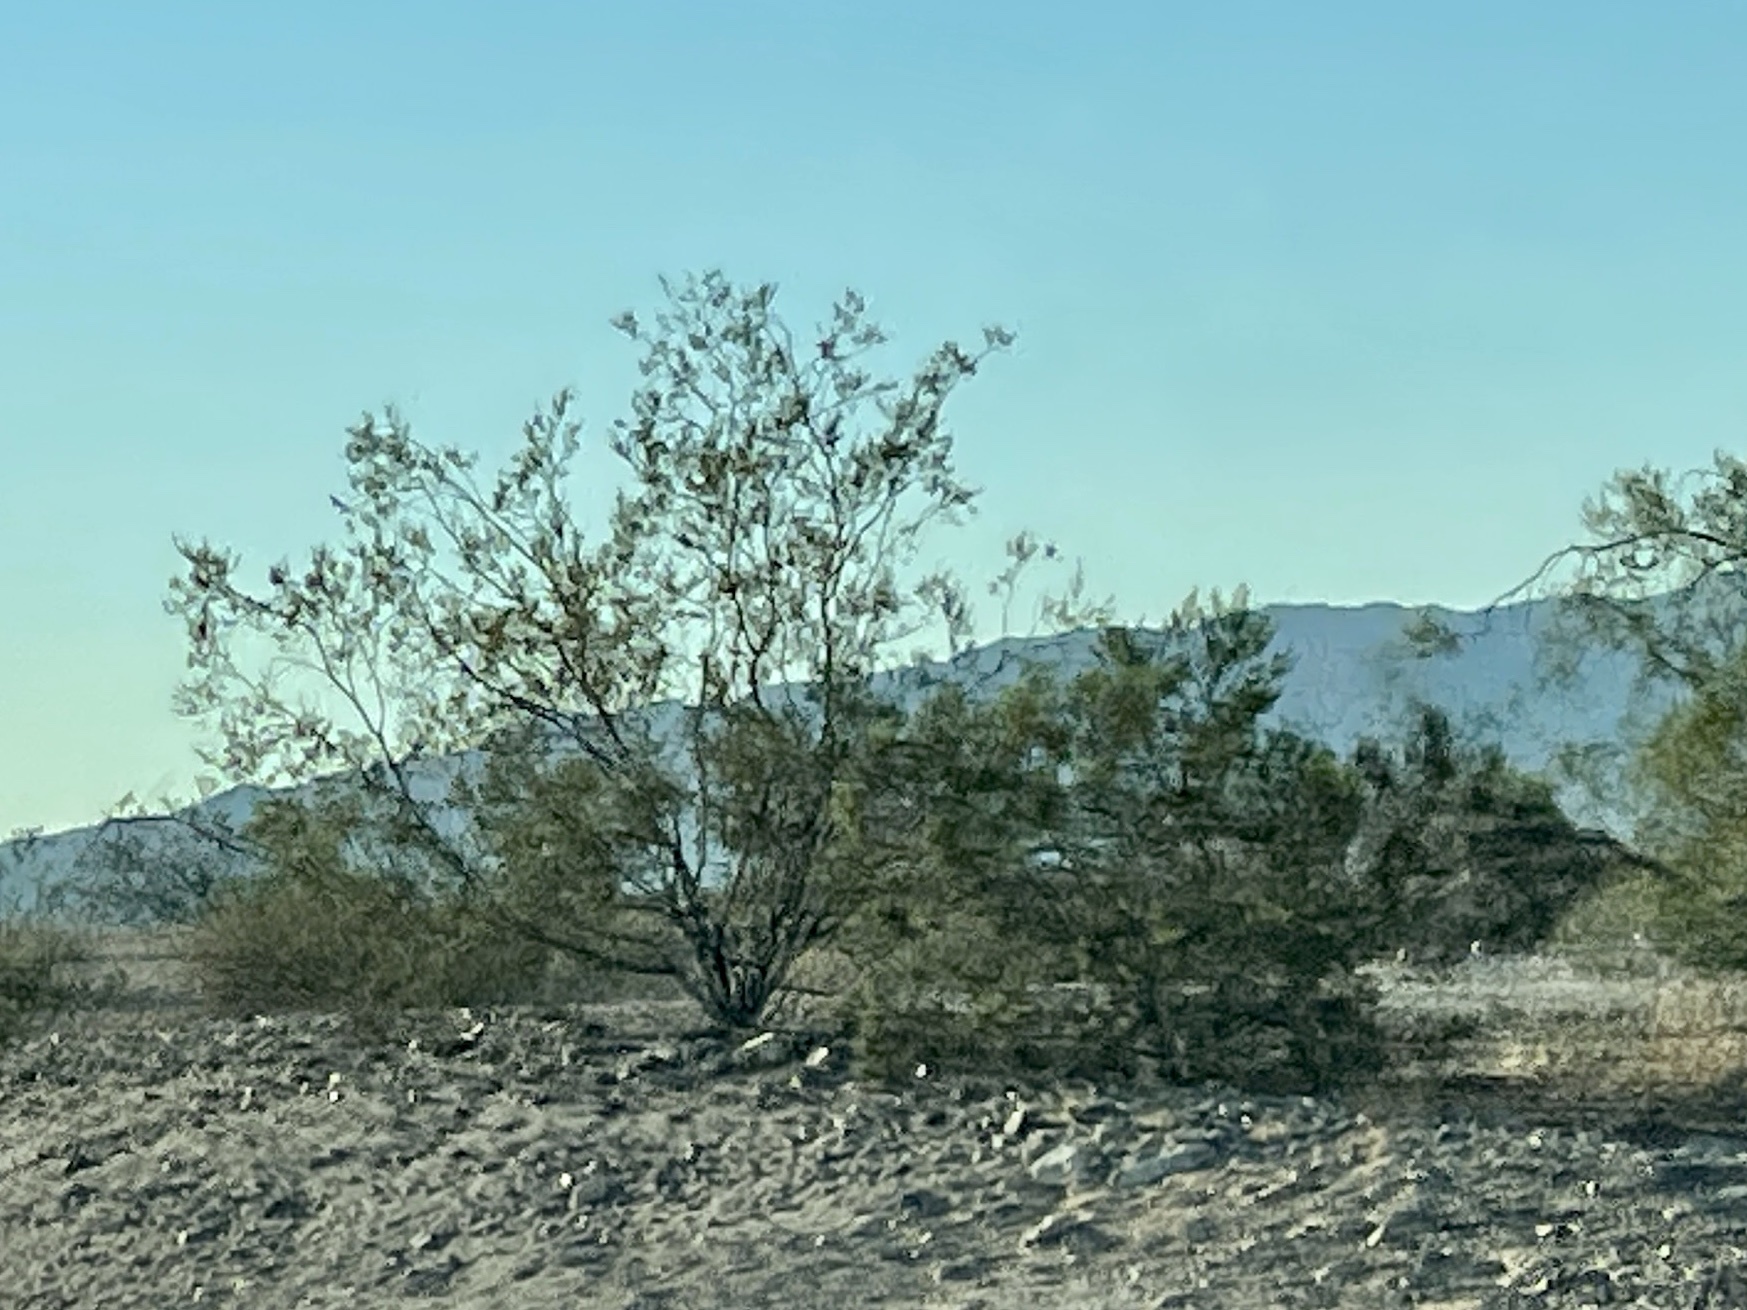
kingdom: Plantae
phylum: Tracheophyta
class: Magnoliopsida
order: Zygophyllales
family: Zygophyllaceae
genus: Larrea
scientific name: Larrea tridentata
